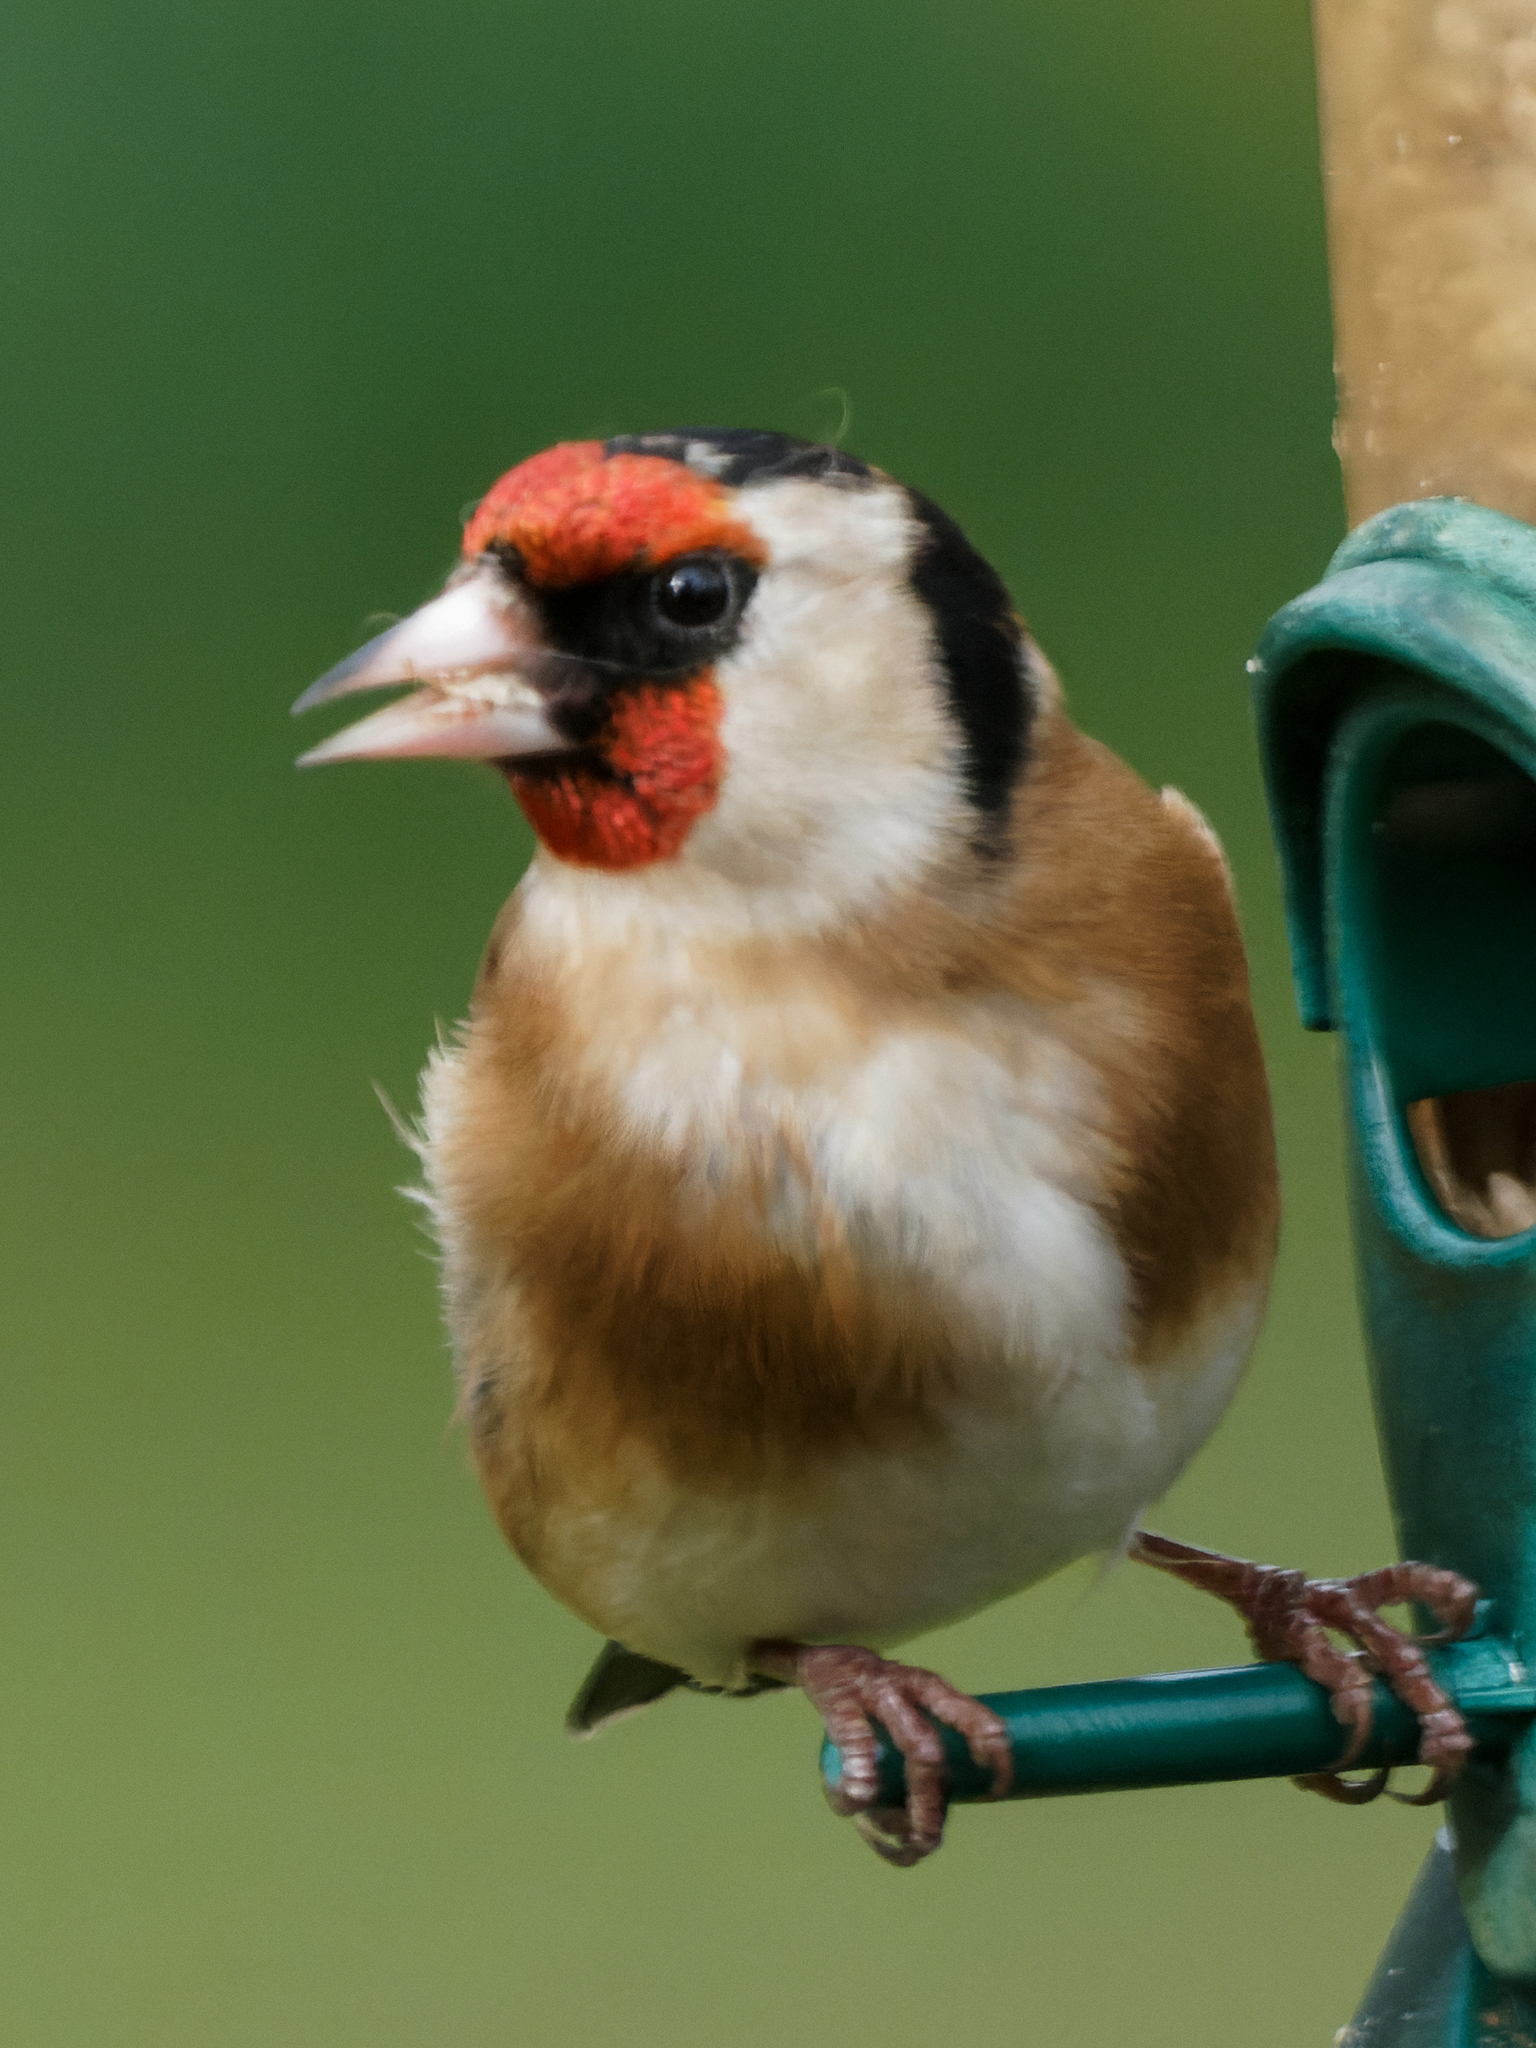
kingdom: Animalia
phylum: Chordata
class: Aves
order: Passeriformes
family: Fringillidae
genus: Carduelis
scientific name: Carduelis carduelis
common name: European goldfinch
